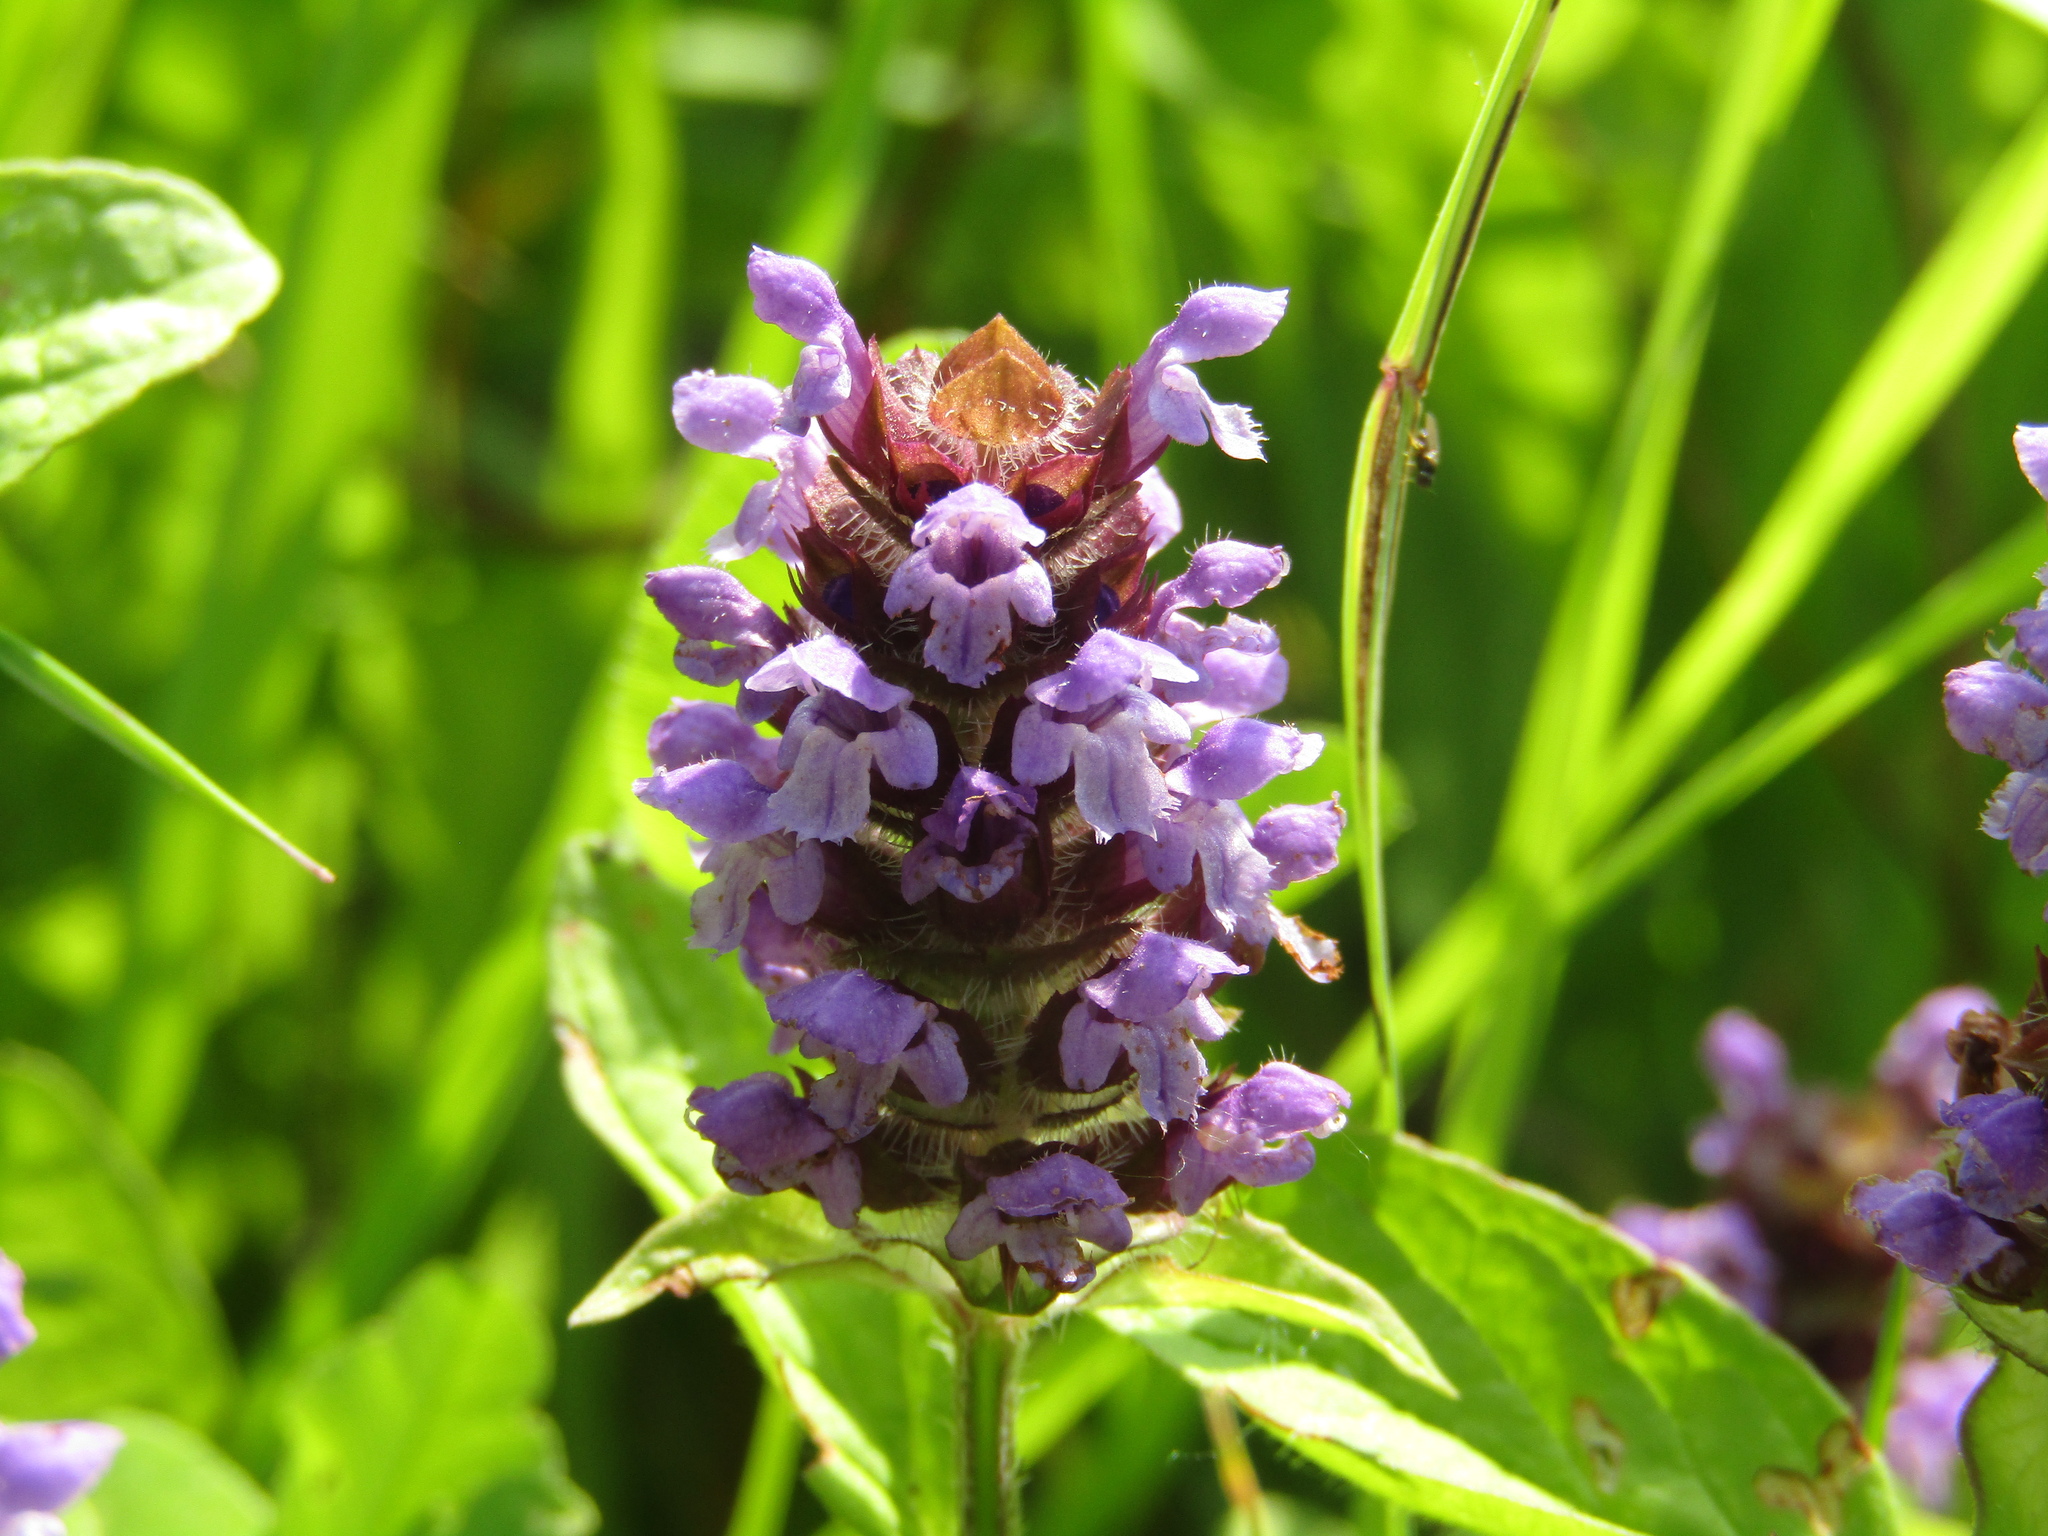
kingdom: Plantae
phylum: Tracheophyta
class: Magnoliopsida
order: Lamiales
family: Lamiaceae
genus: Prunella
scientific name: Prunella vulgaris
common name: Heal-all
